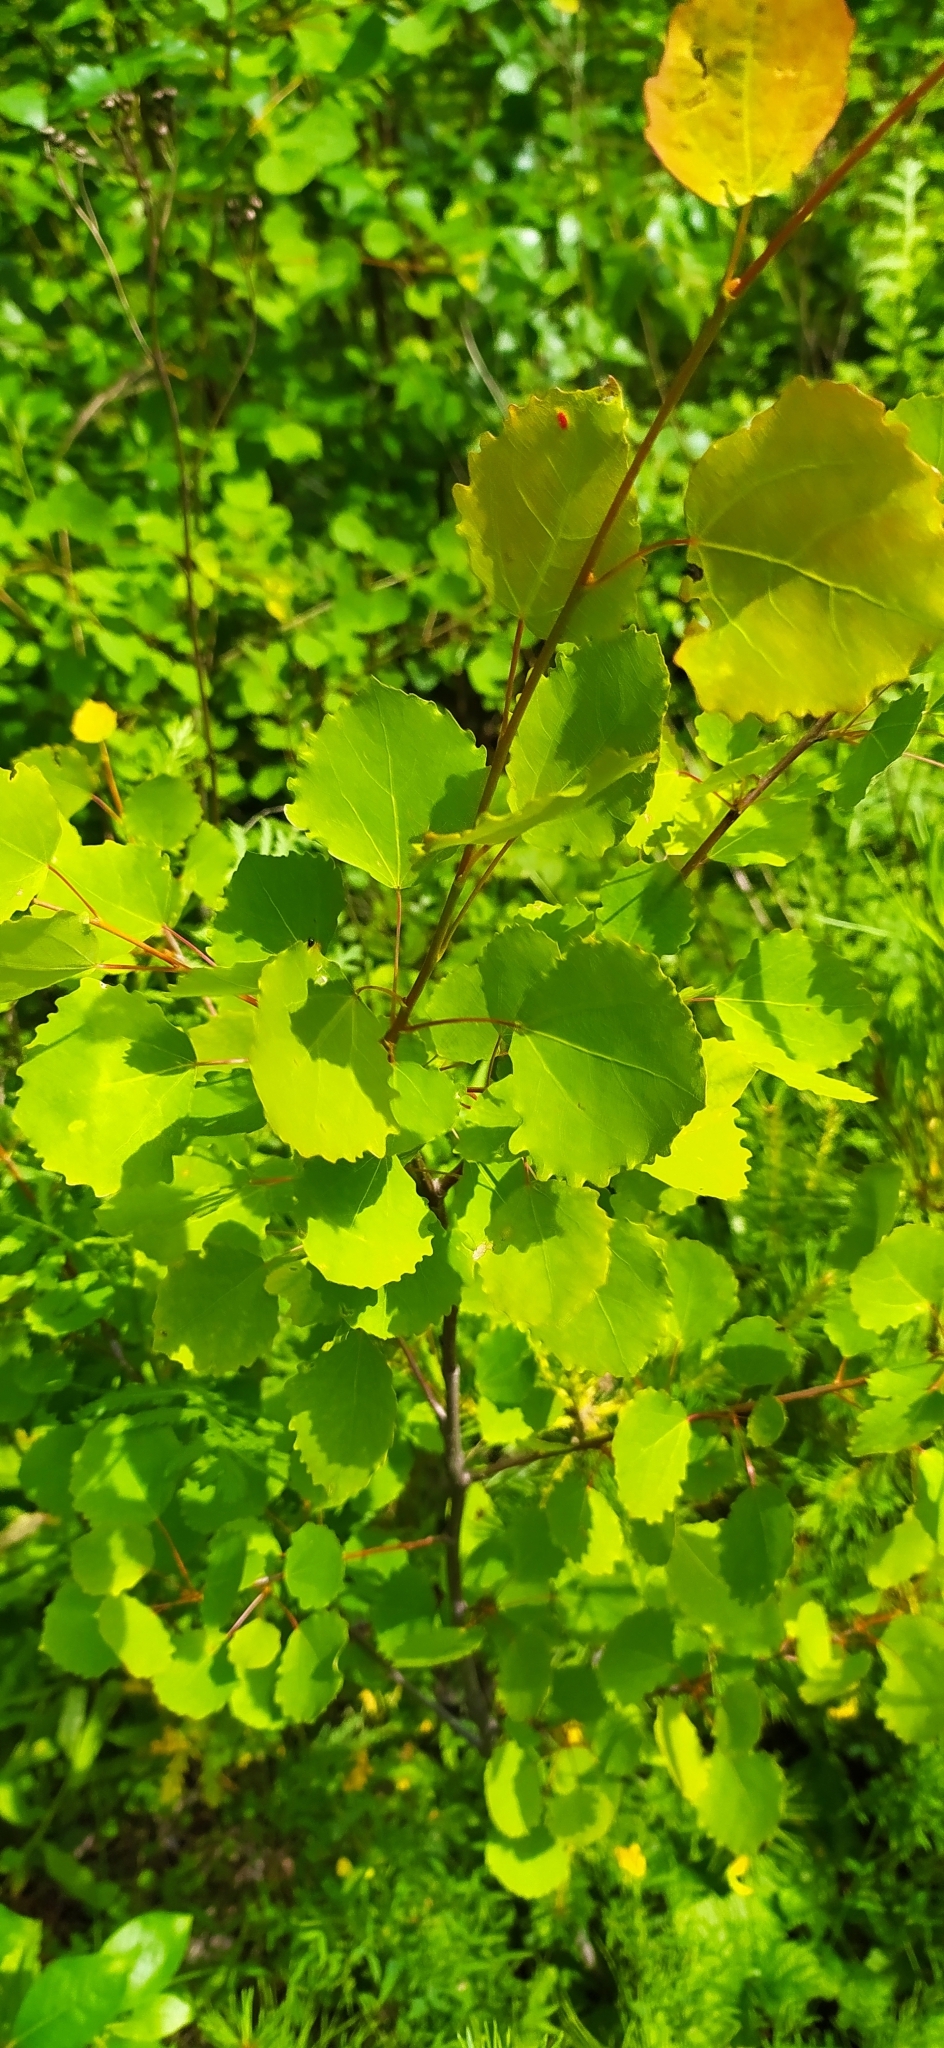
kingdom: Plantae
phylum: Tracheophyta
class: Magnoliopsida
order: Malpighiales
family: Salicaceae
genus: Populus
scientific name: Populus tremula
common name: European aspen
